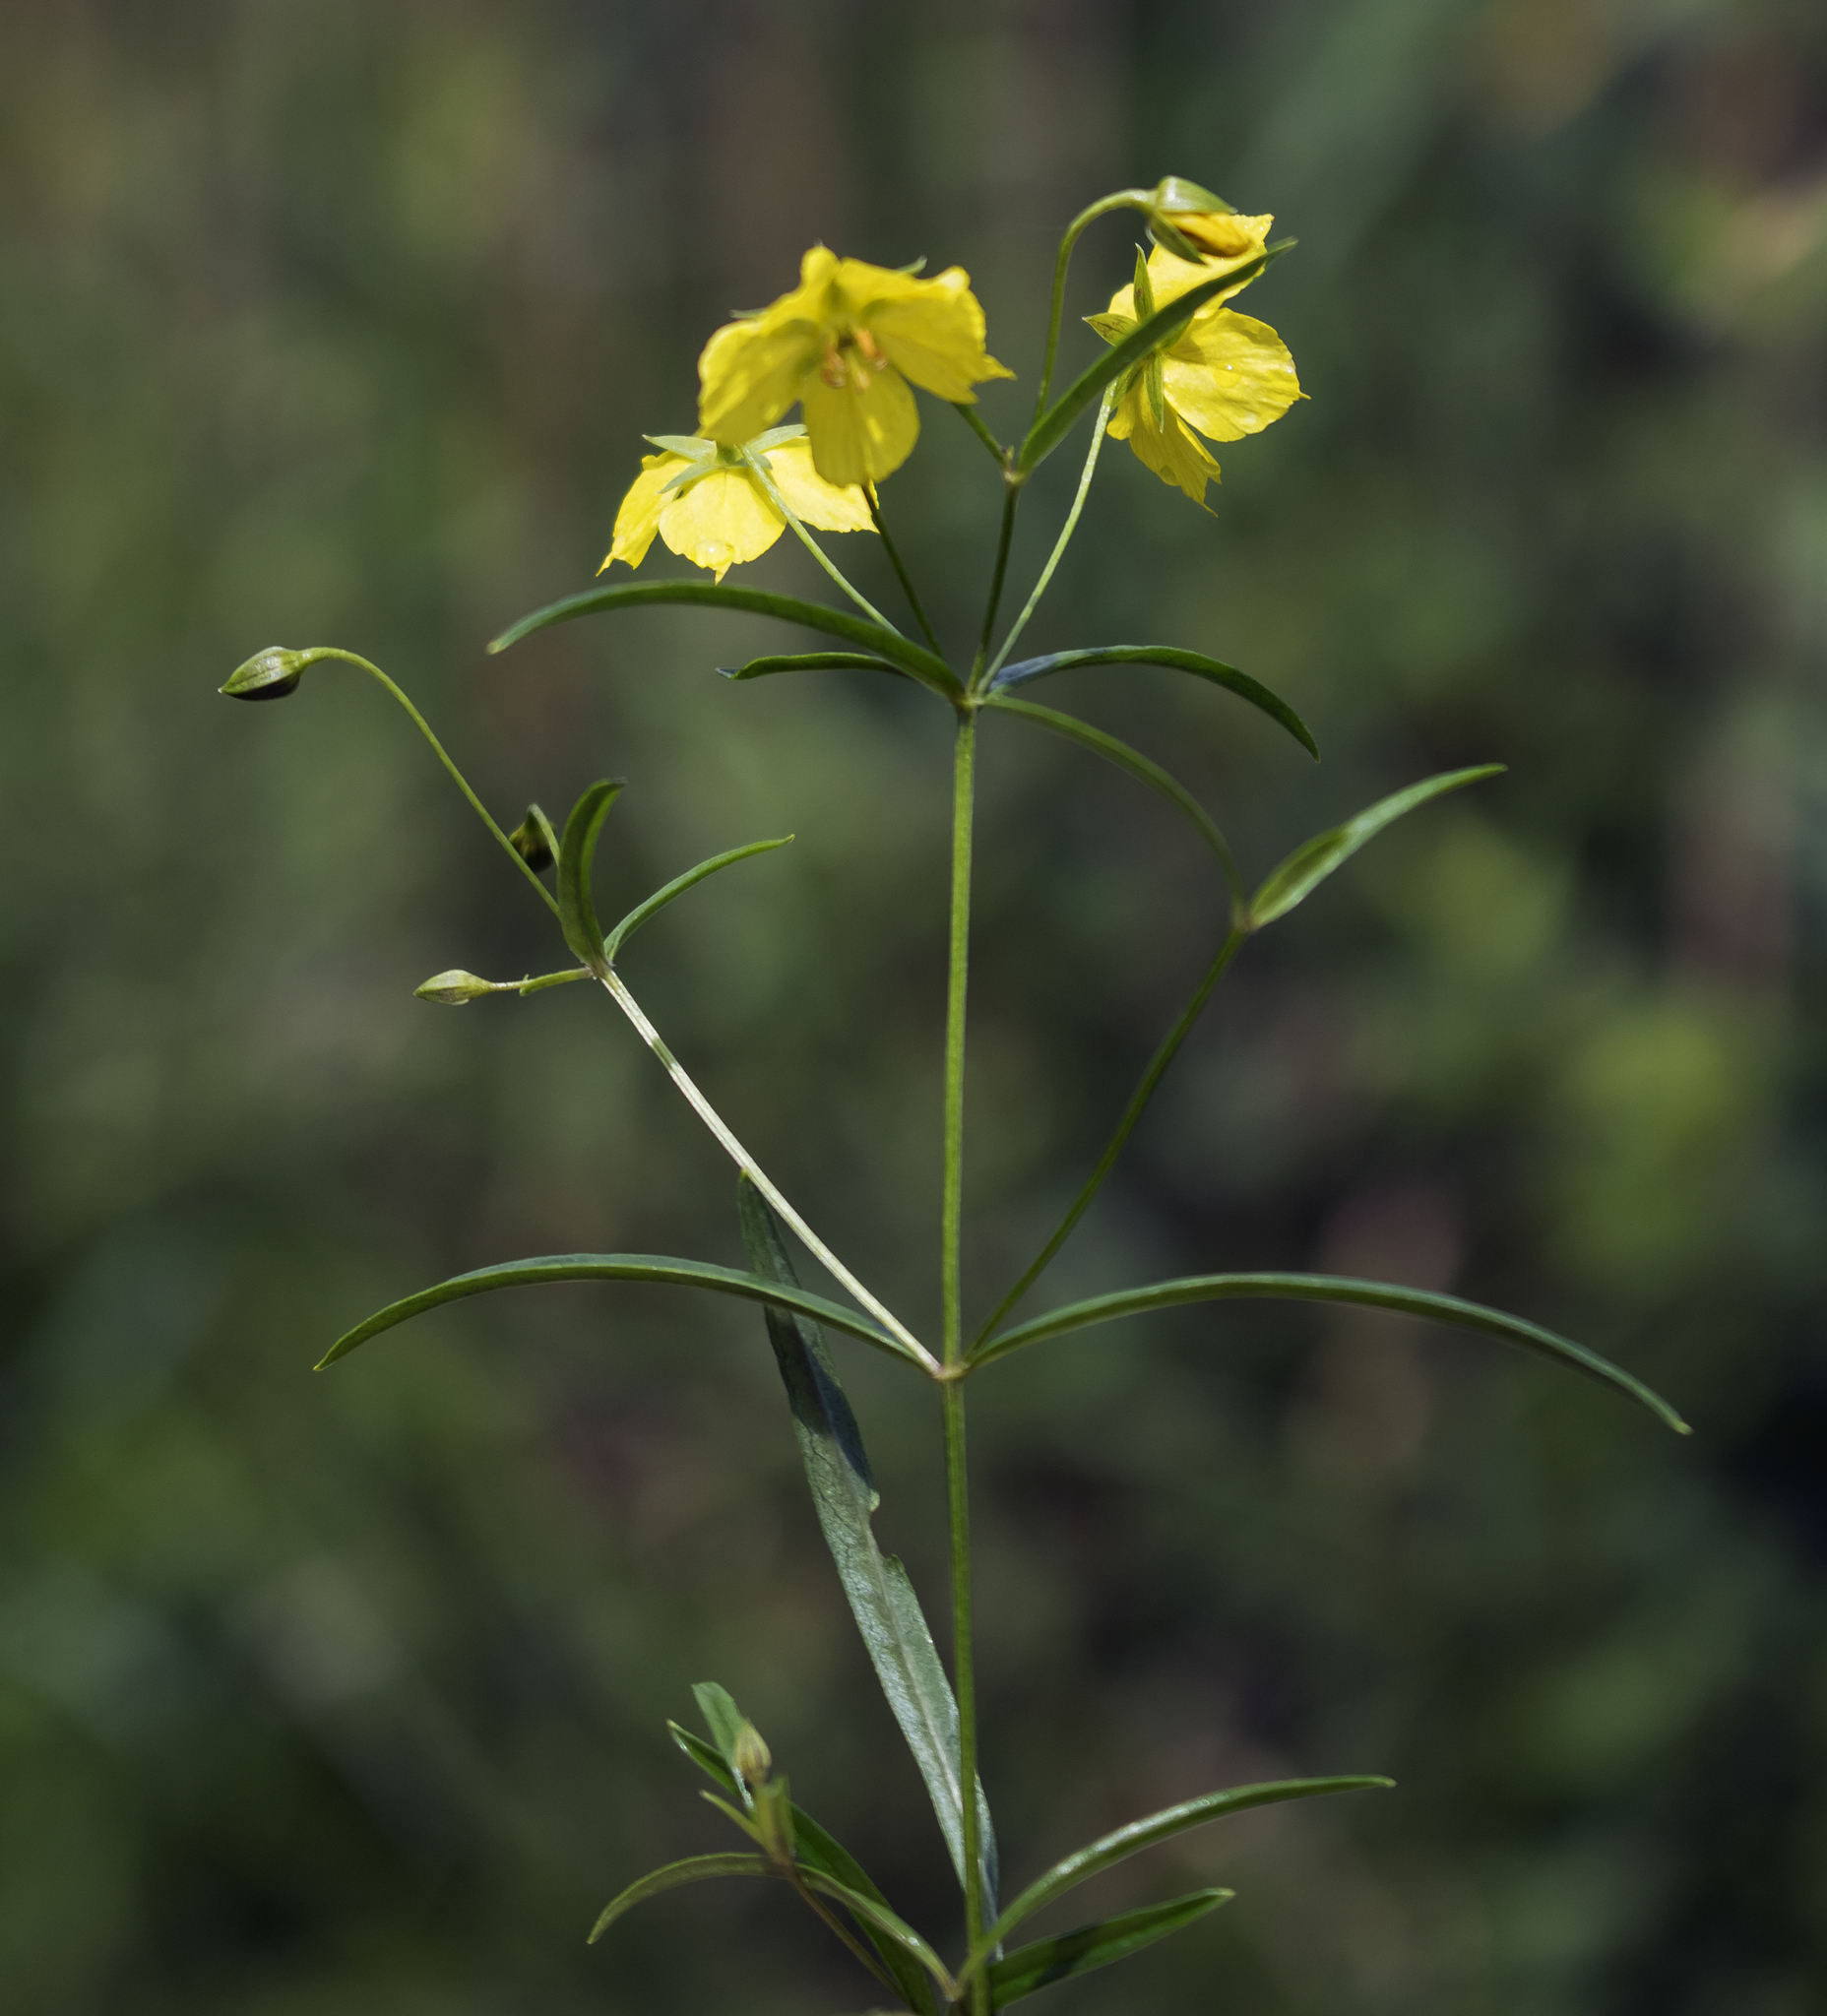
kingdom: Plantae
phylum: Tracheophyta
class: Magnoliopsida
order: Ericales
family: Primulaceae
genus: Lysimachia
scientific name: Lysimachia quadriflora
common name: Four-flowered loosestrife
